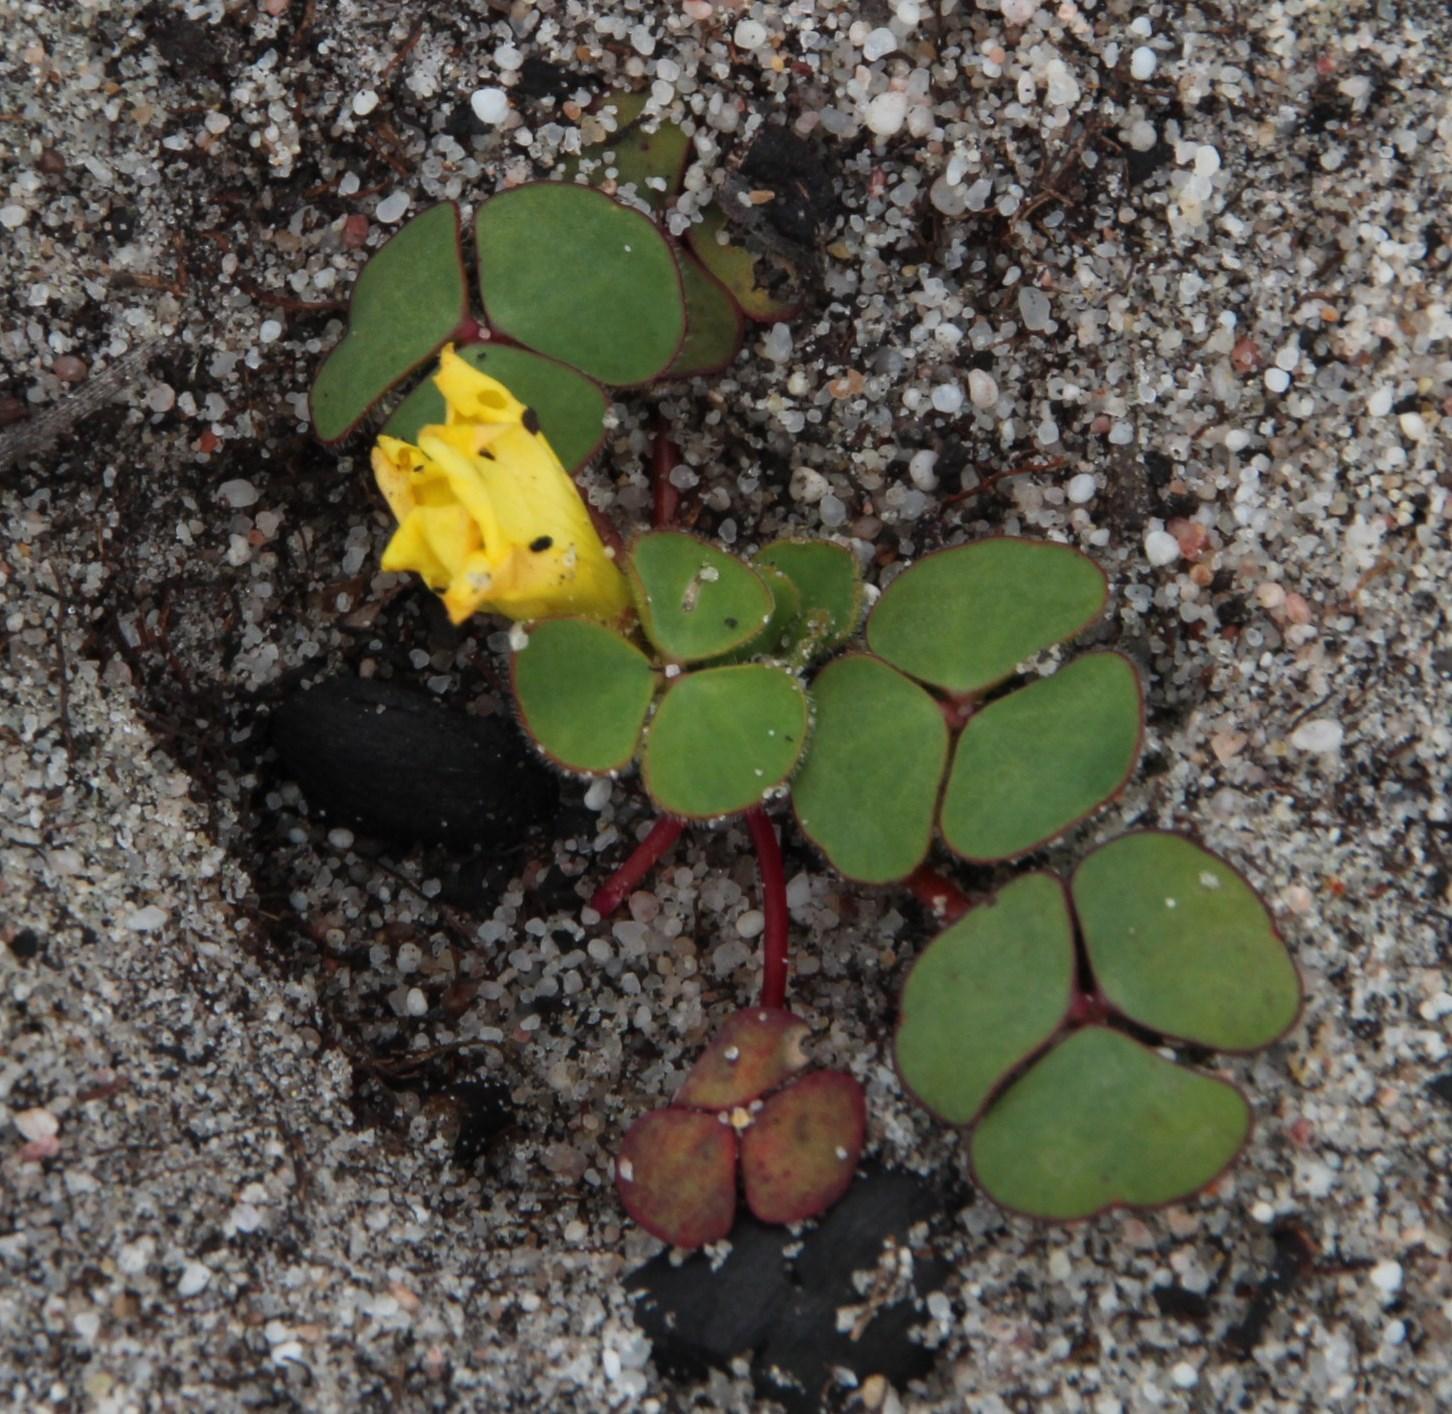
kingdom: Plantae
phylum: Tracheophyta
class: Magnoliopsida
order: Oxalidales
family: Oxalidaceae
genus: Oxalis
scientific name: Oxalis luteola
